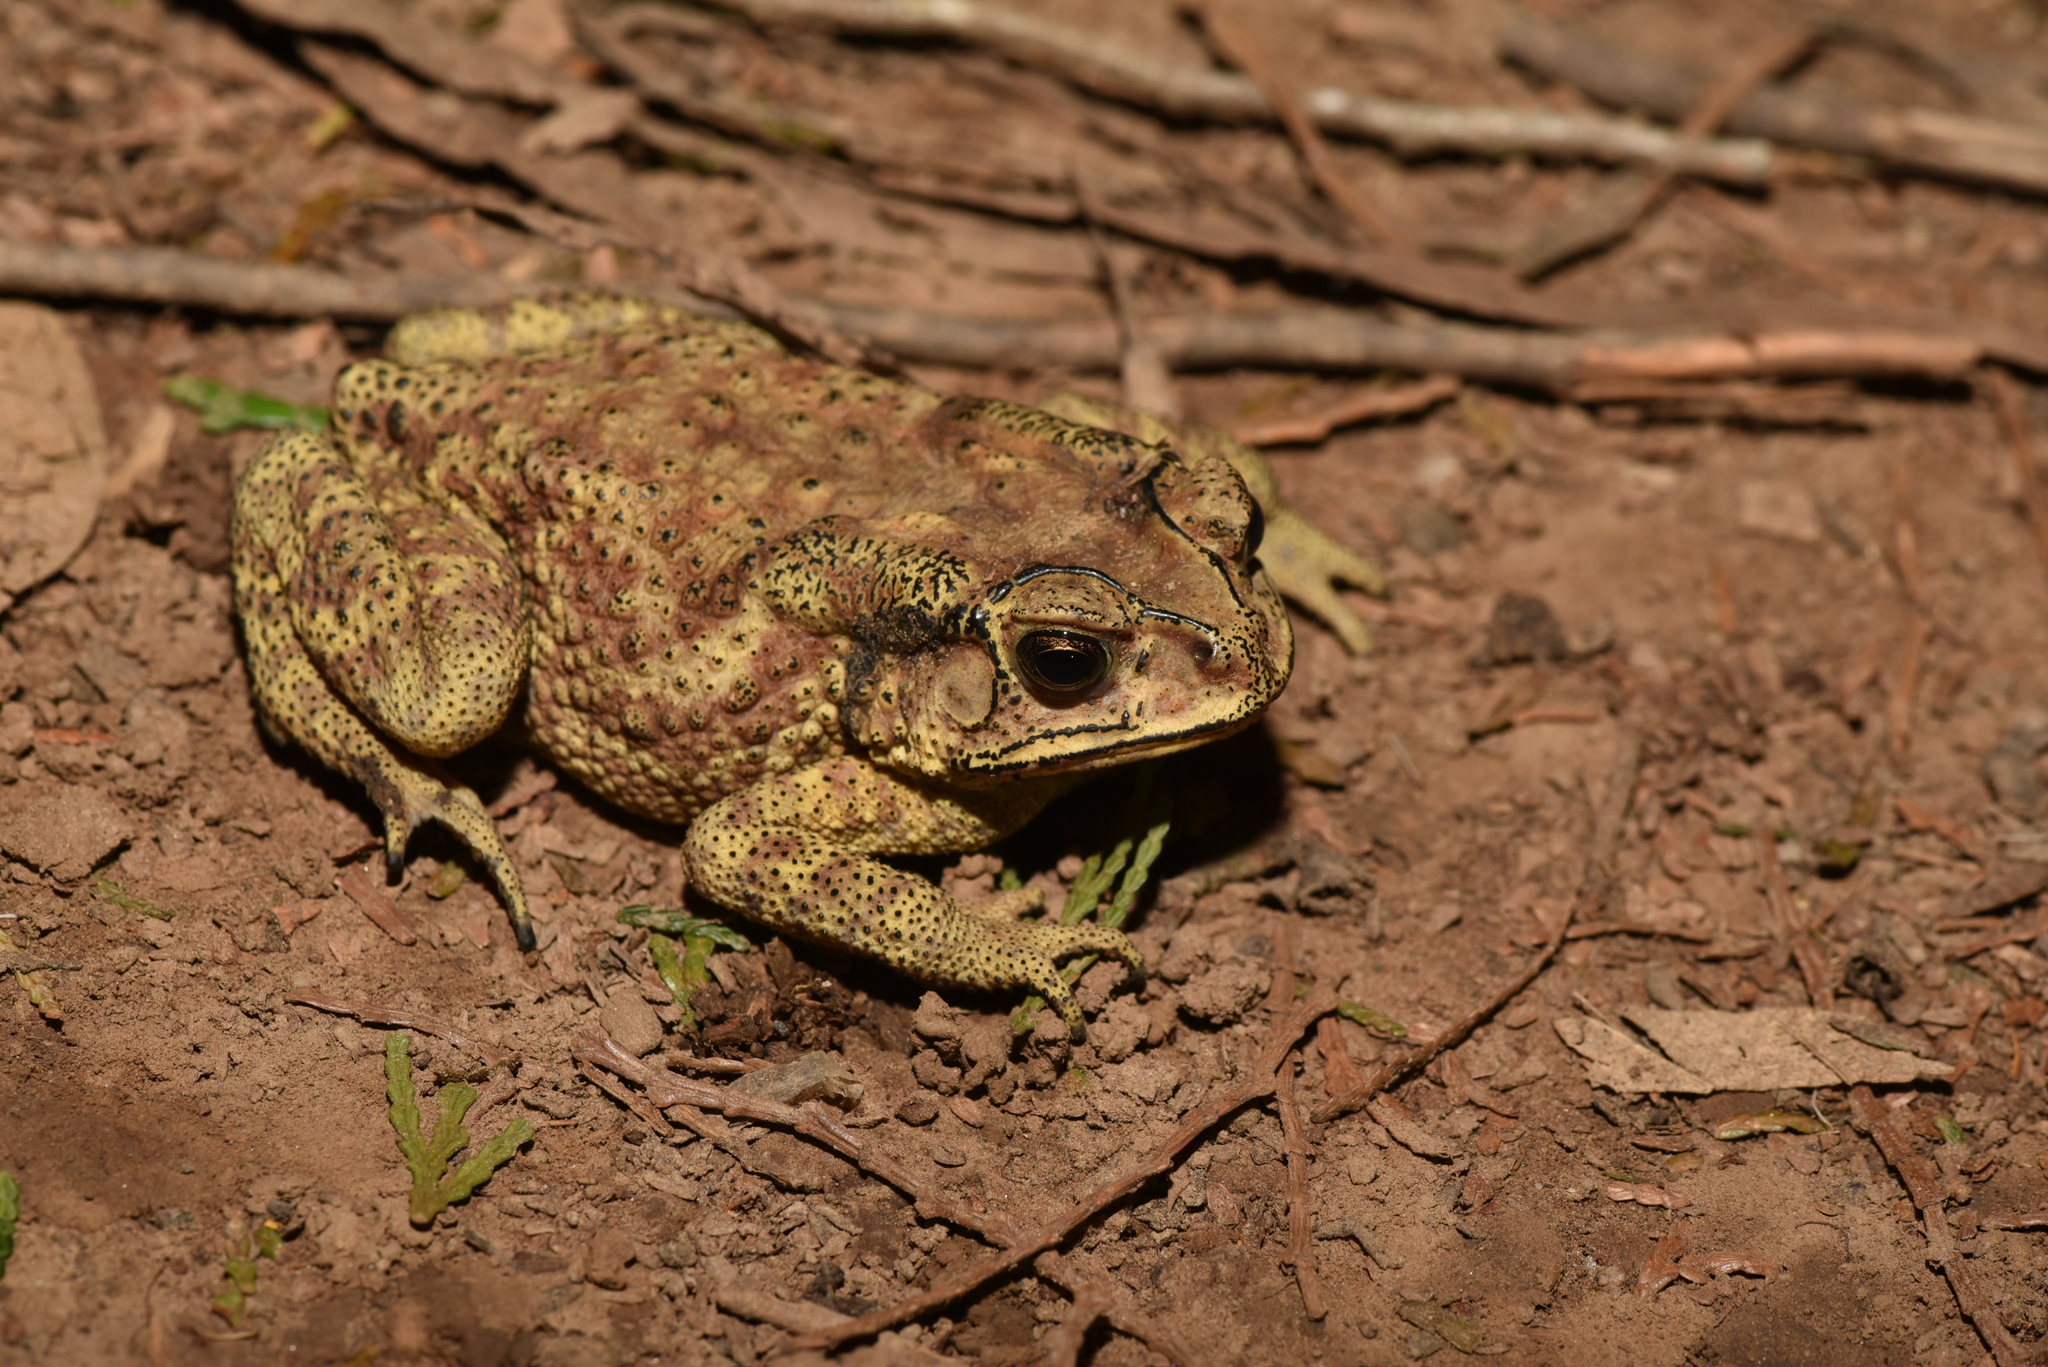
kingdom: Animalia
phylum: Chordata
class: Amphibia
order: Anura
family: Bufonidae
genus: Duttaphrynus
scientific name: Duttaphrynus melanostictus
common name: Common sunda toad
